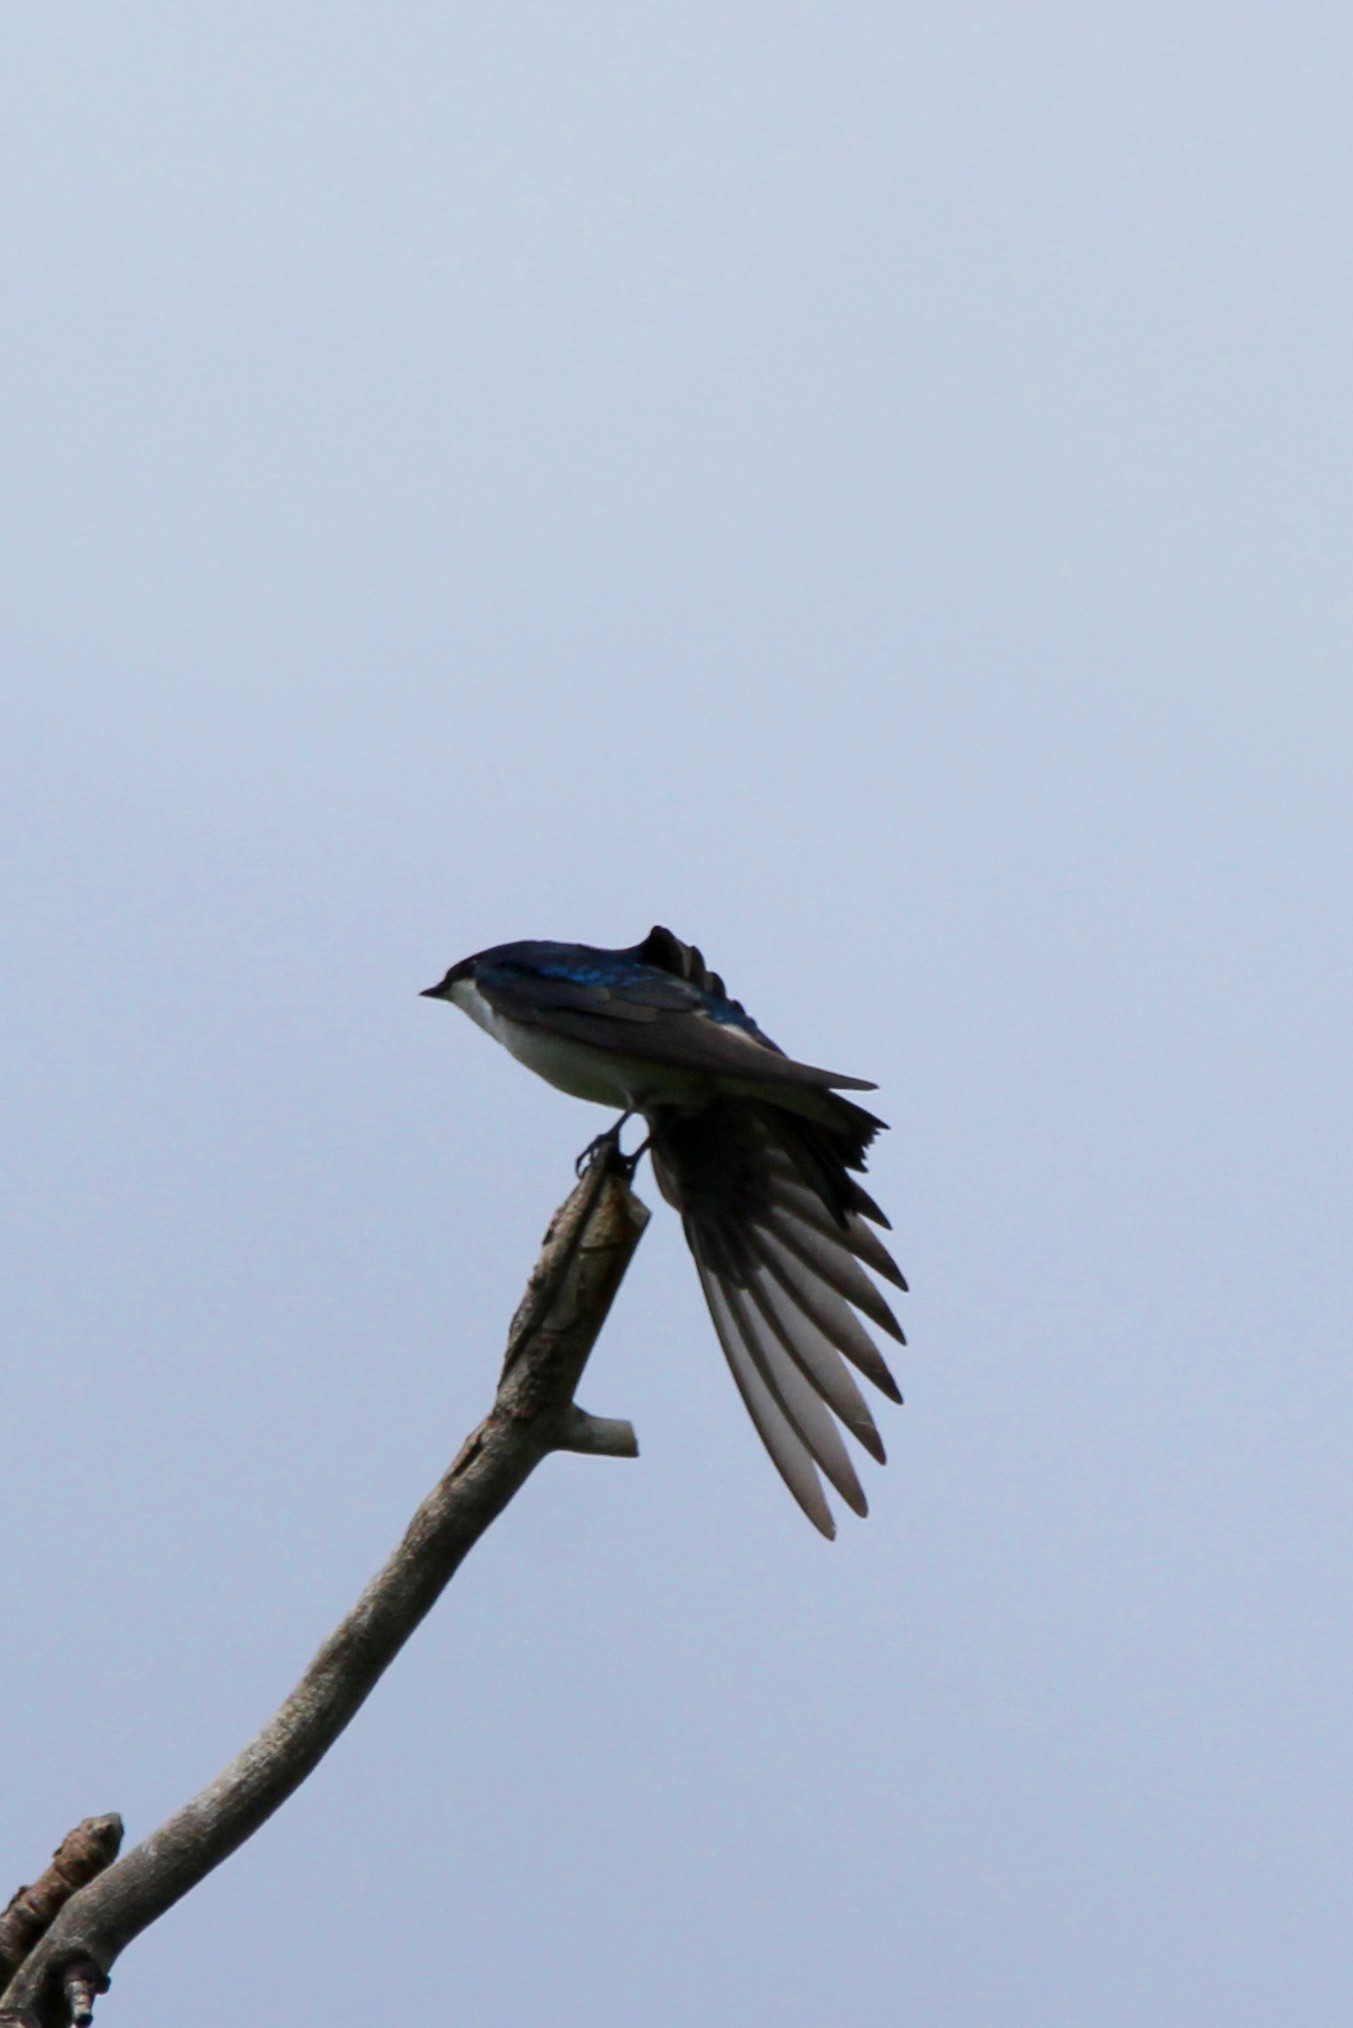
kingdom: Animalia
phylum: Chordata
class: Aves
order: Passeriformes
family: Hirundinidae
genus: Tachycineta
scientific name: Tachycineta bicolor
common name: Tree swallow
